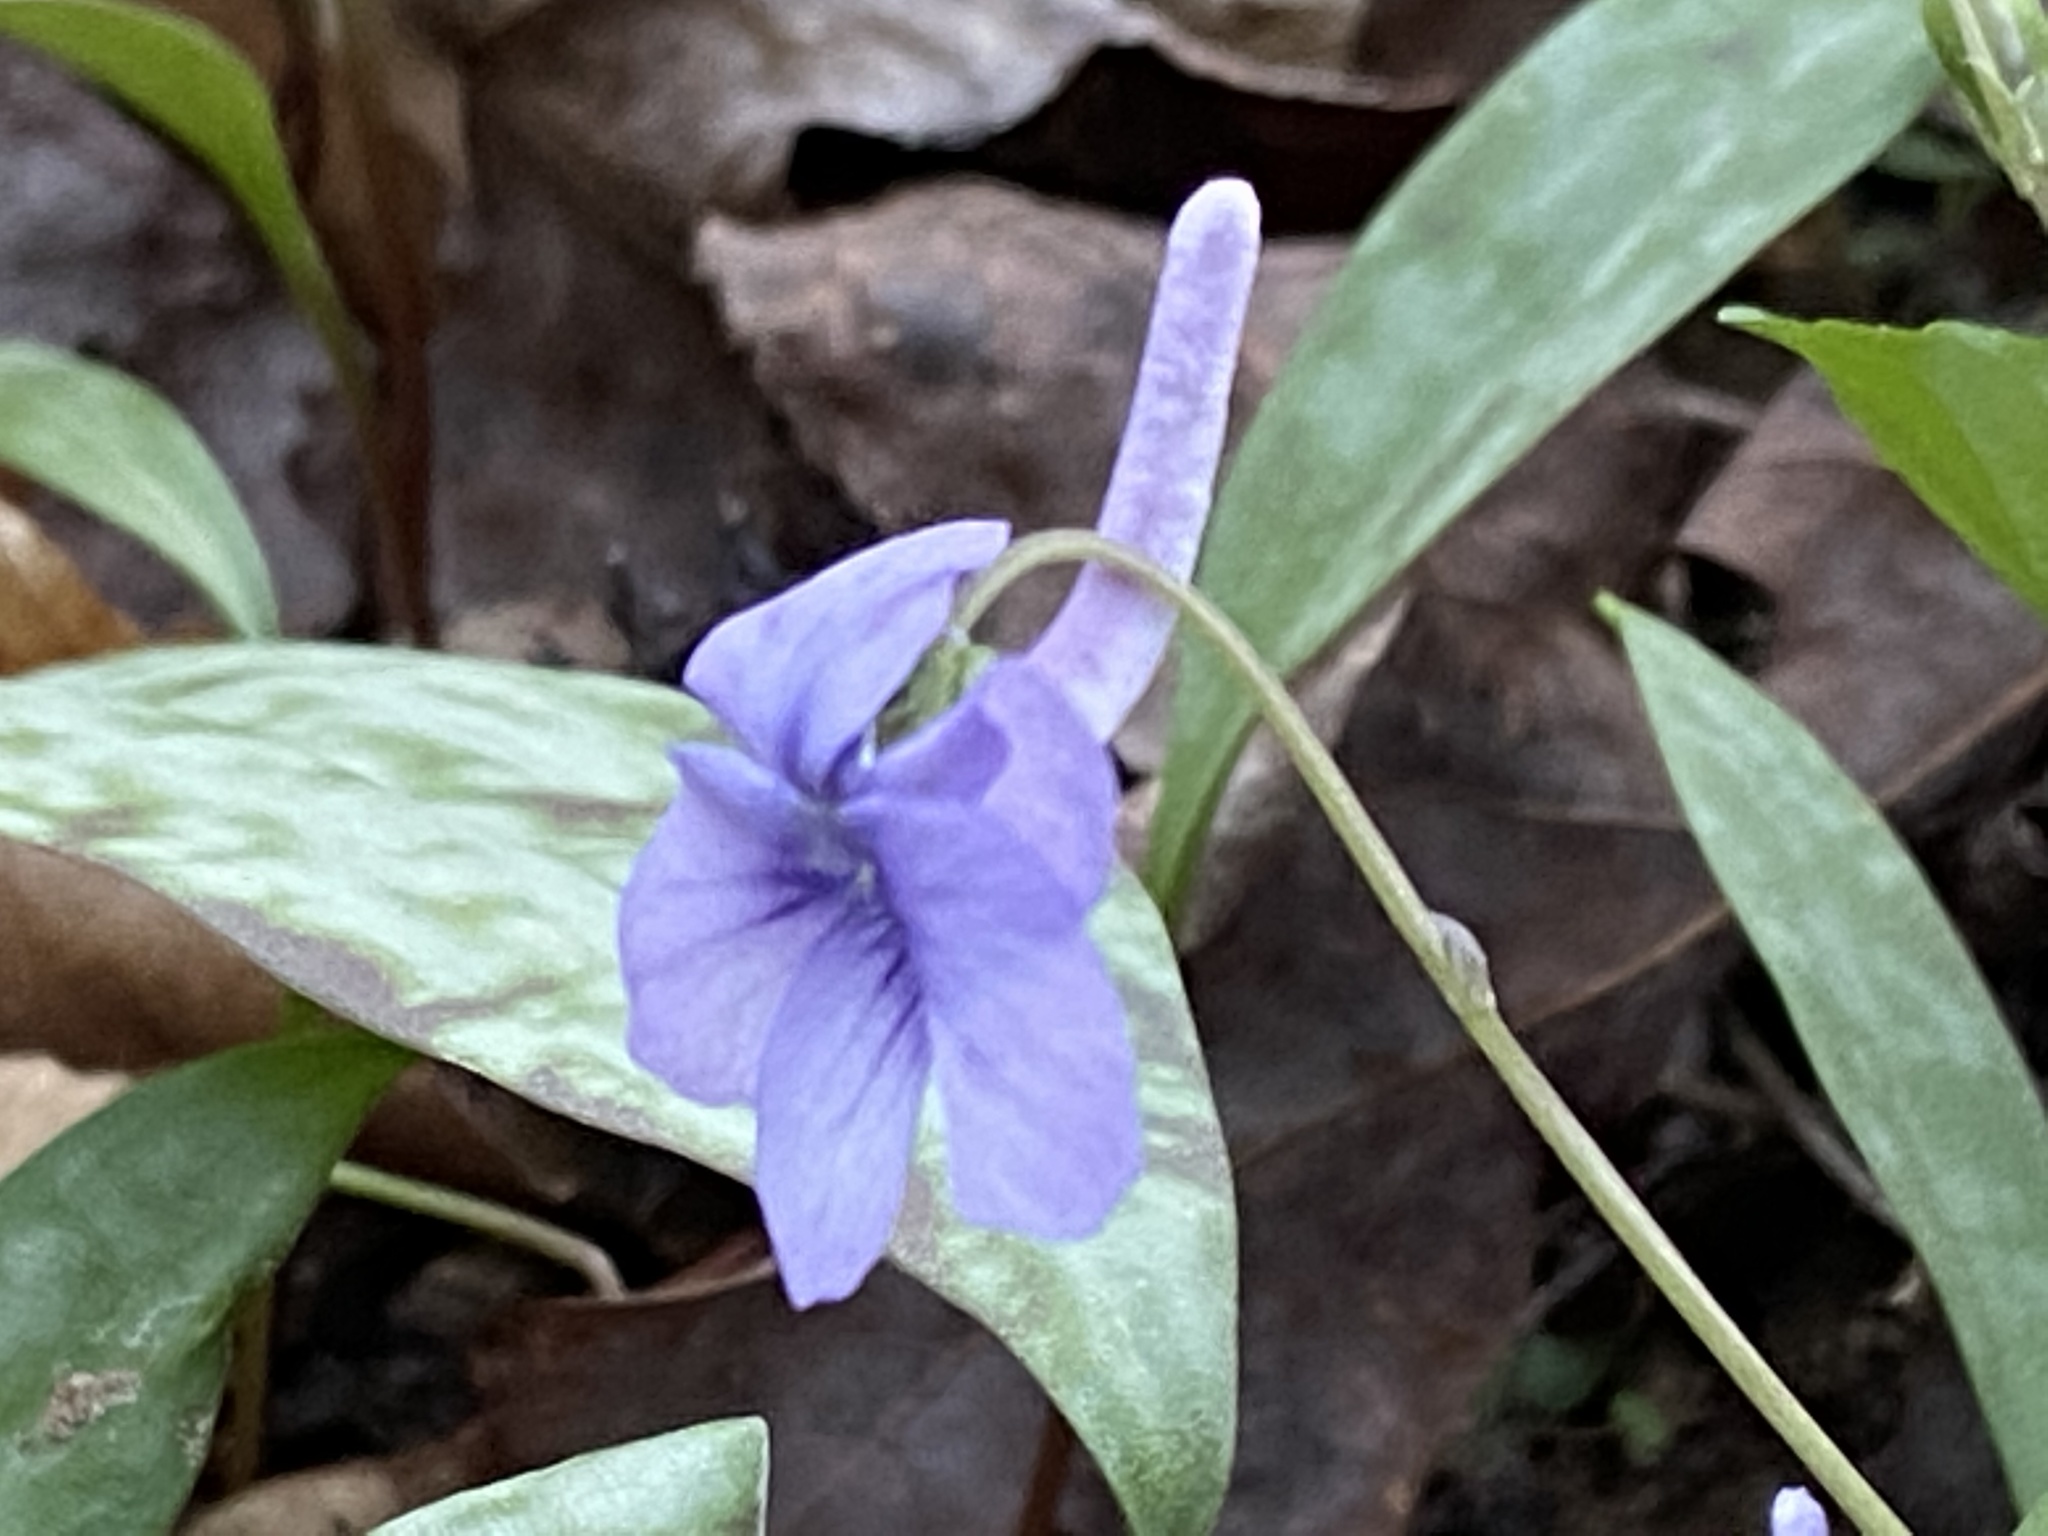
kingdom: Plantae
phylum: Tracheophyta
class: Magnoliopsida
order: Malpighiales
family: Violaceae
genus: Viola
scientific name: Viola rostrata
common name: Long-spur violet
